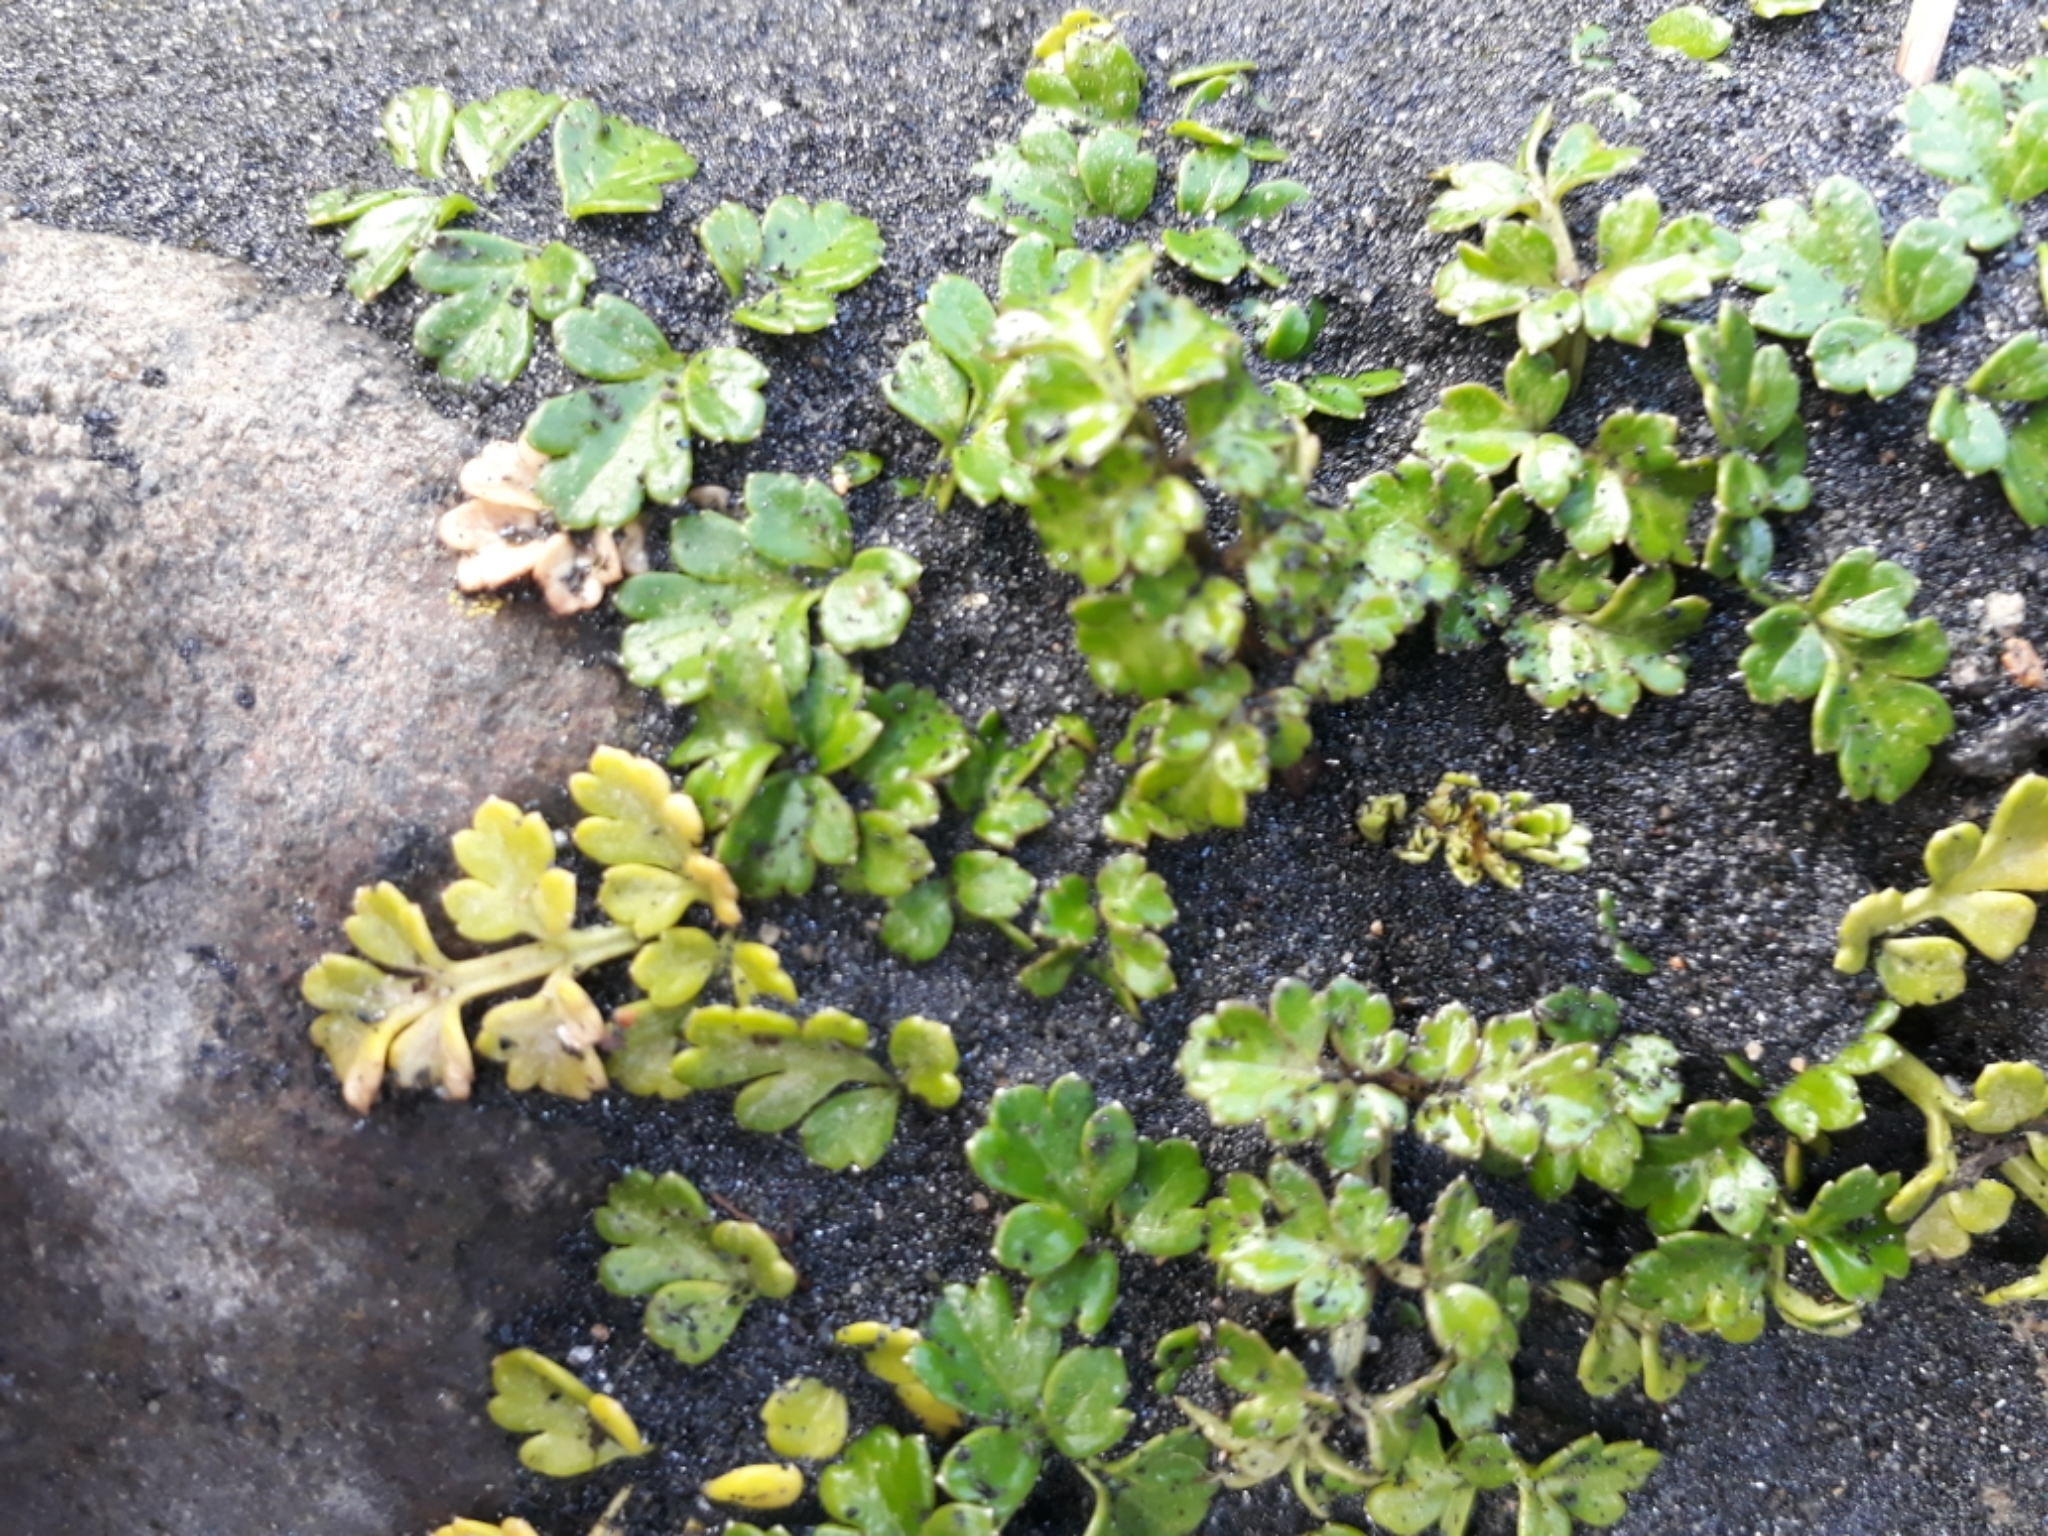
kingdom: Plantae
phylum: Tracheophyta
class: Magnoliopsida
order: Apiales
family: Apiaceae
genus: Apium
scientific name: Apium prostratum
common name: Prostrate marshwort
